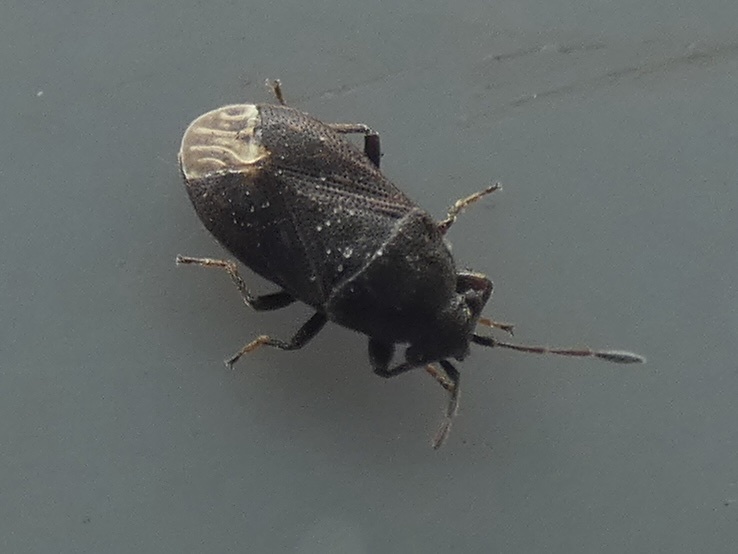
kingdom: Animalia
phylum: Arthropoda
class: Insecta
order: Hemiptera
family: Rhyparochromidae
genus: Stygnocoris
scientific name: Stygnocoris fuligineus
